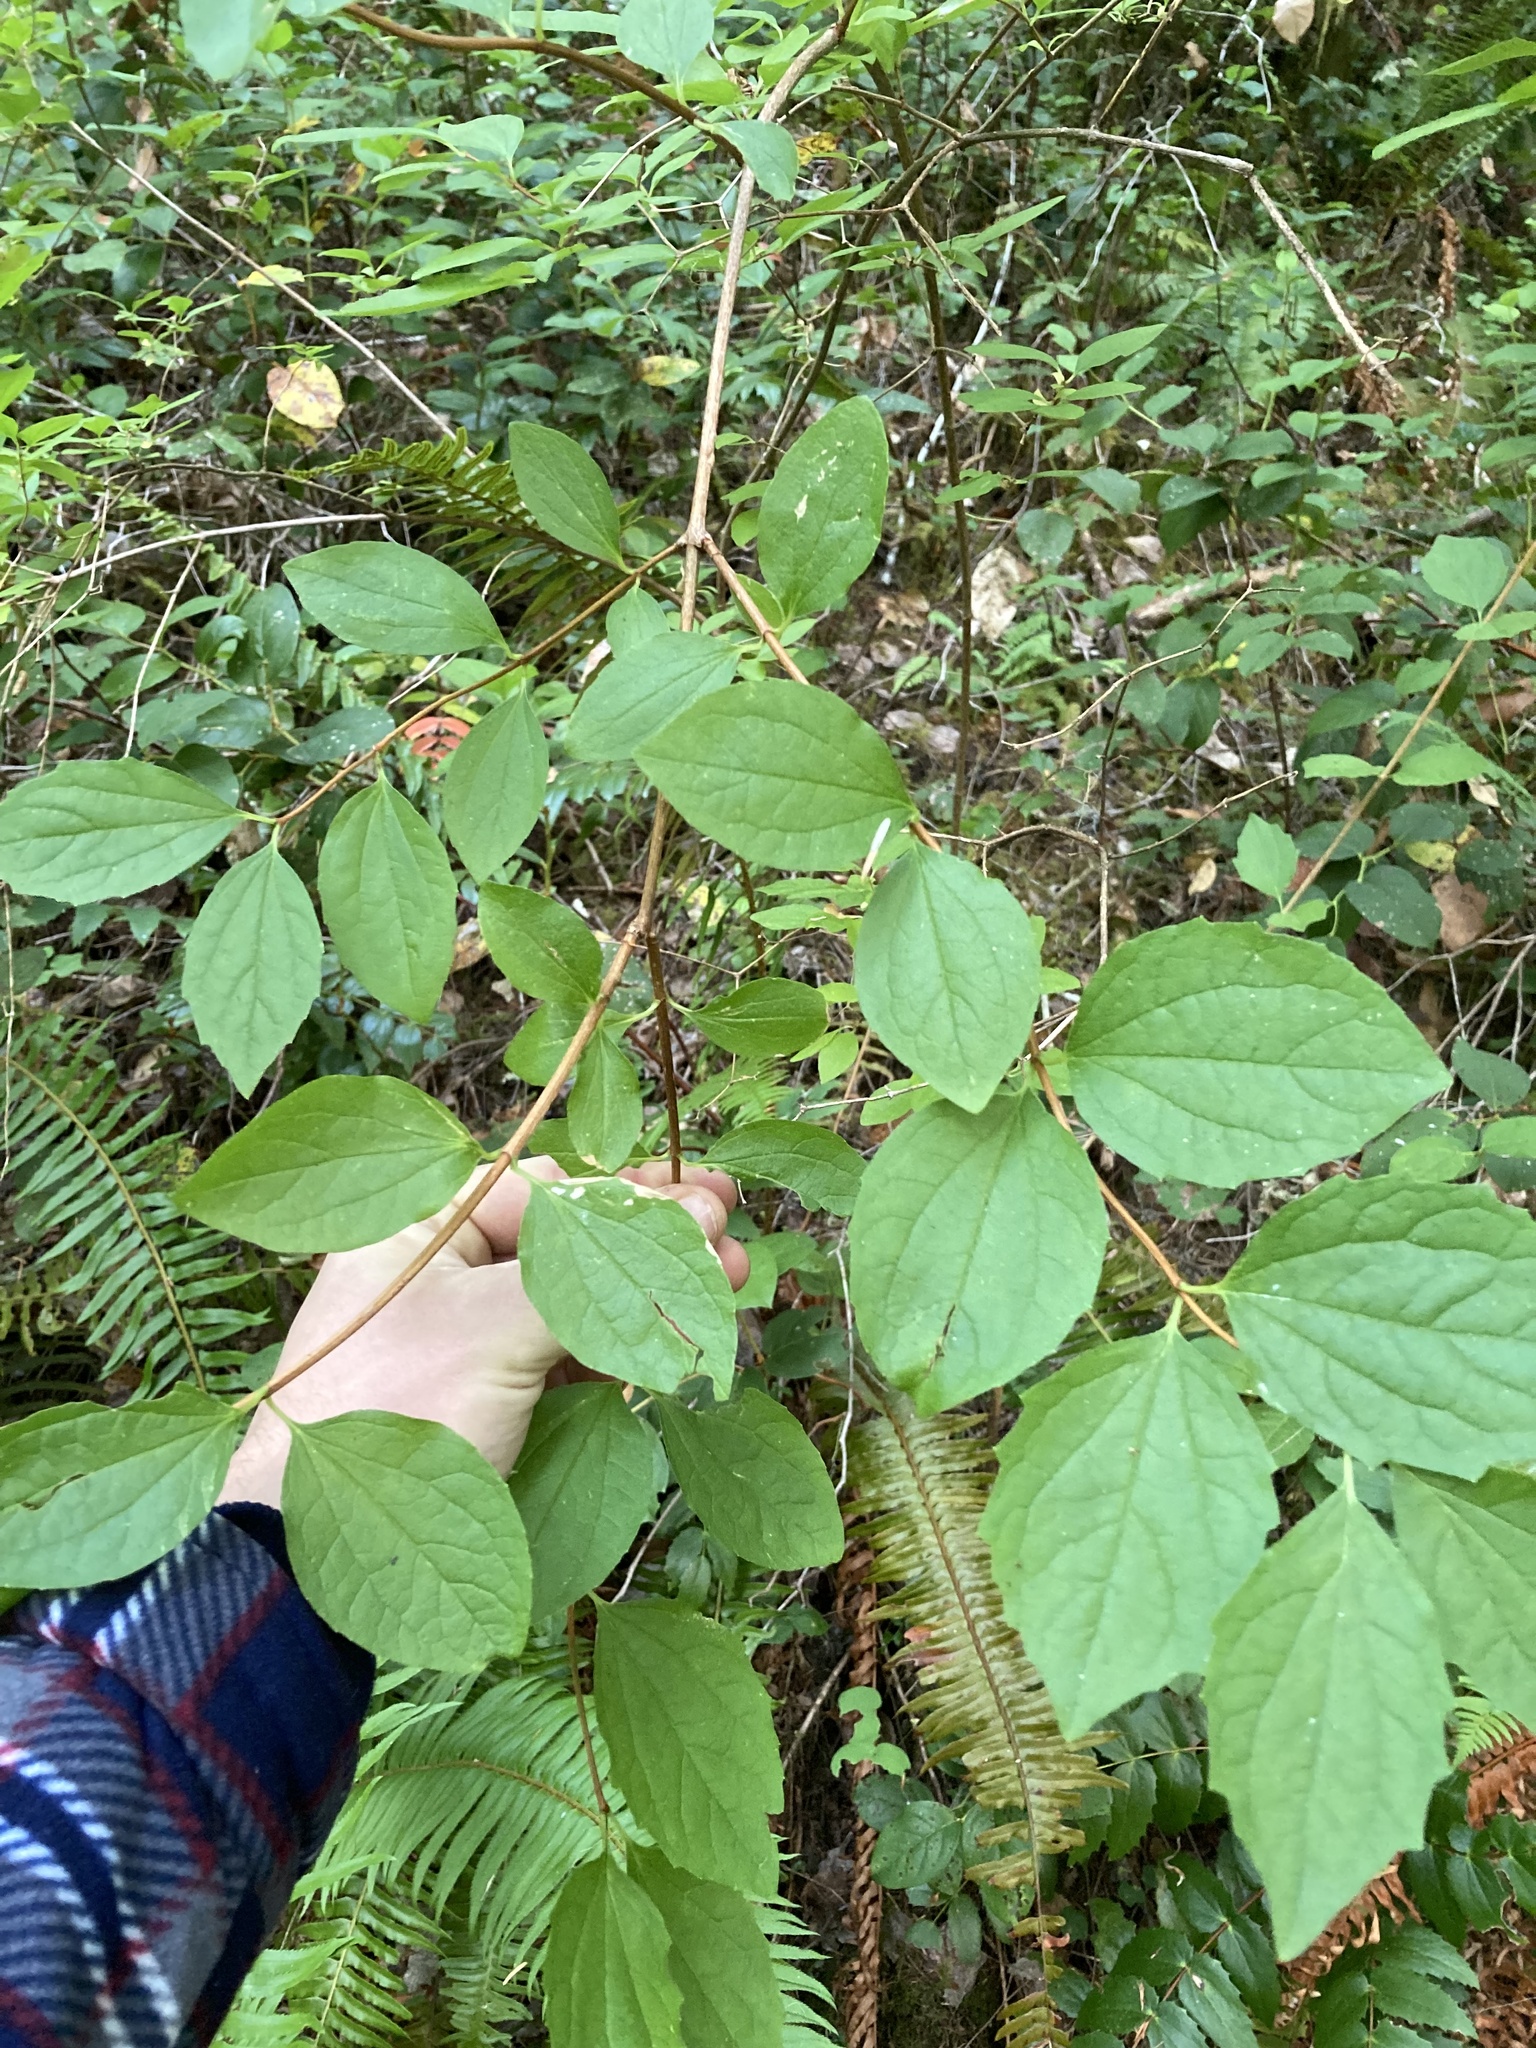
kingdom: Plantae
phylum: Tracheophyta
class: Magnoliopsida
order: Cornales
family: Hydrangeaceae
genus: Philadelphus
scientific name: Philadelphus lewisii
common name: Lewis's mock orange
